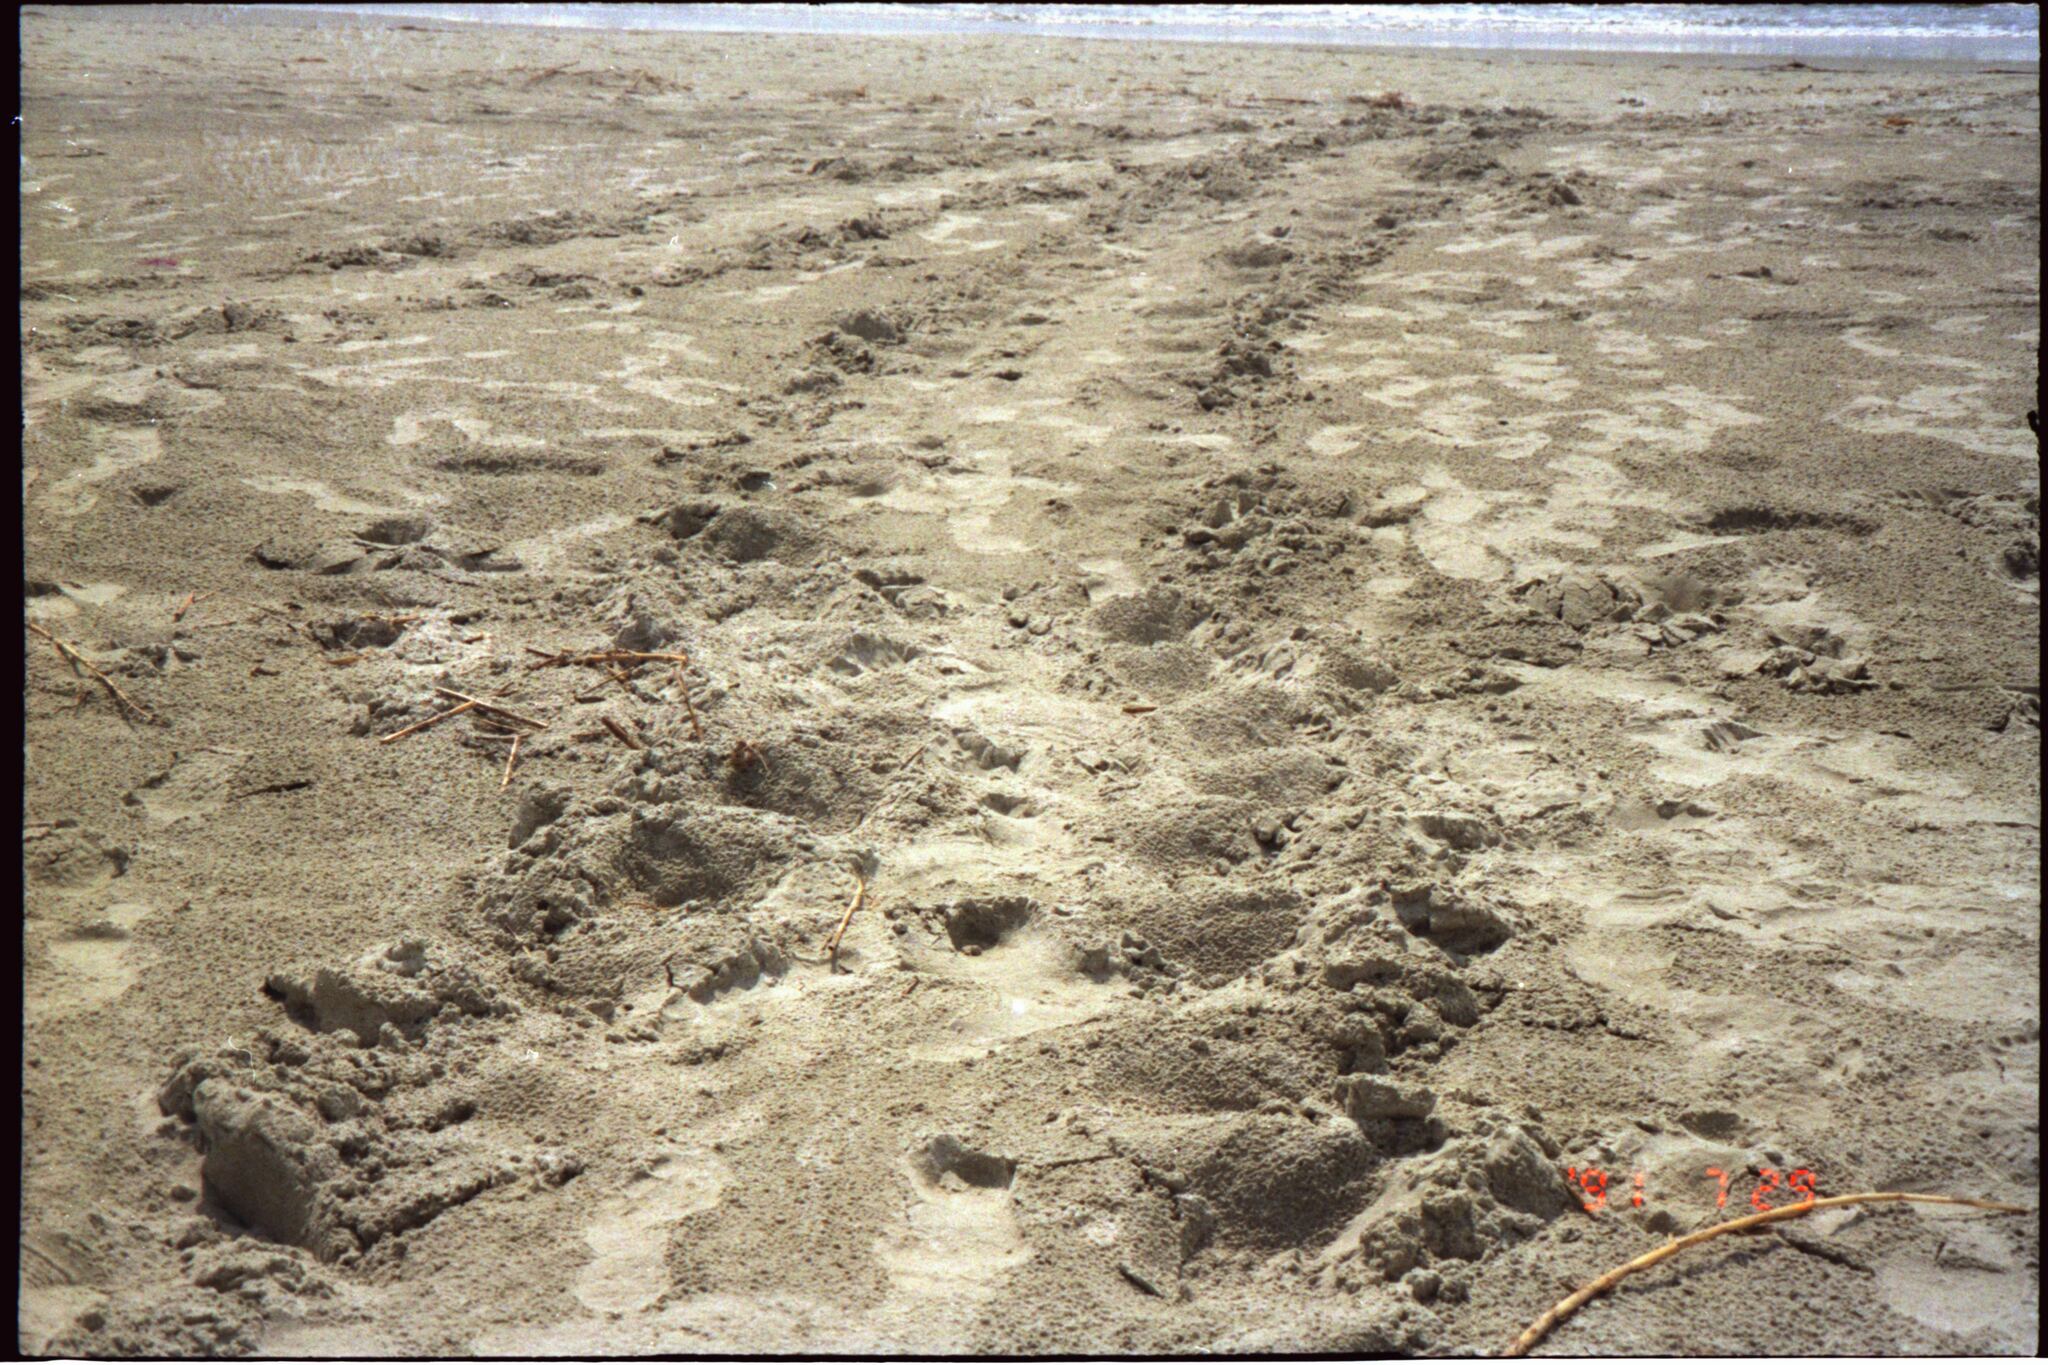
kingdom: Animalia
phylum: Chordata
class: Testudines
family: Cheloniidae
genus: Caretta
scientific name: Caretta caretta
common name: Loggerhead sea turtle
